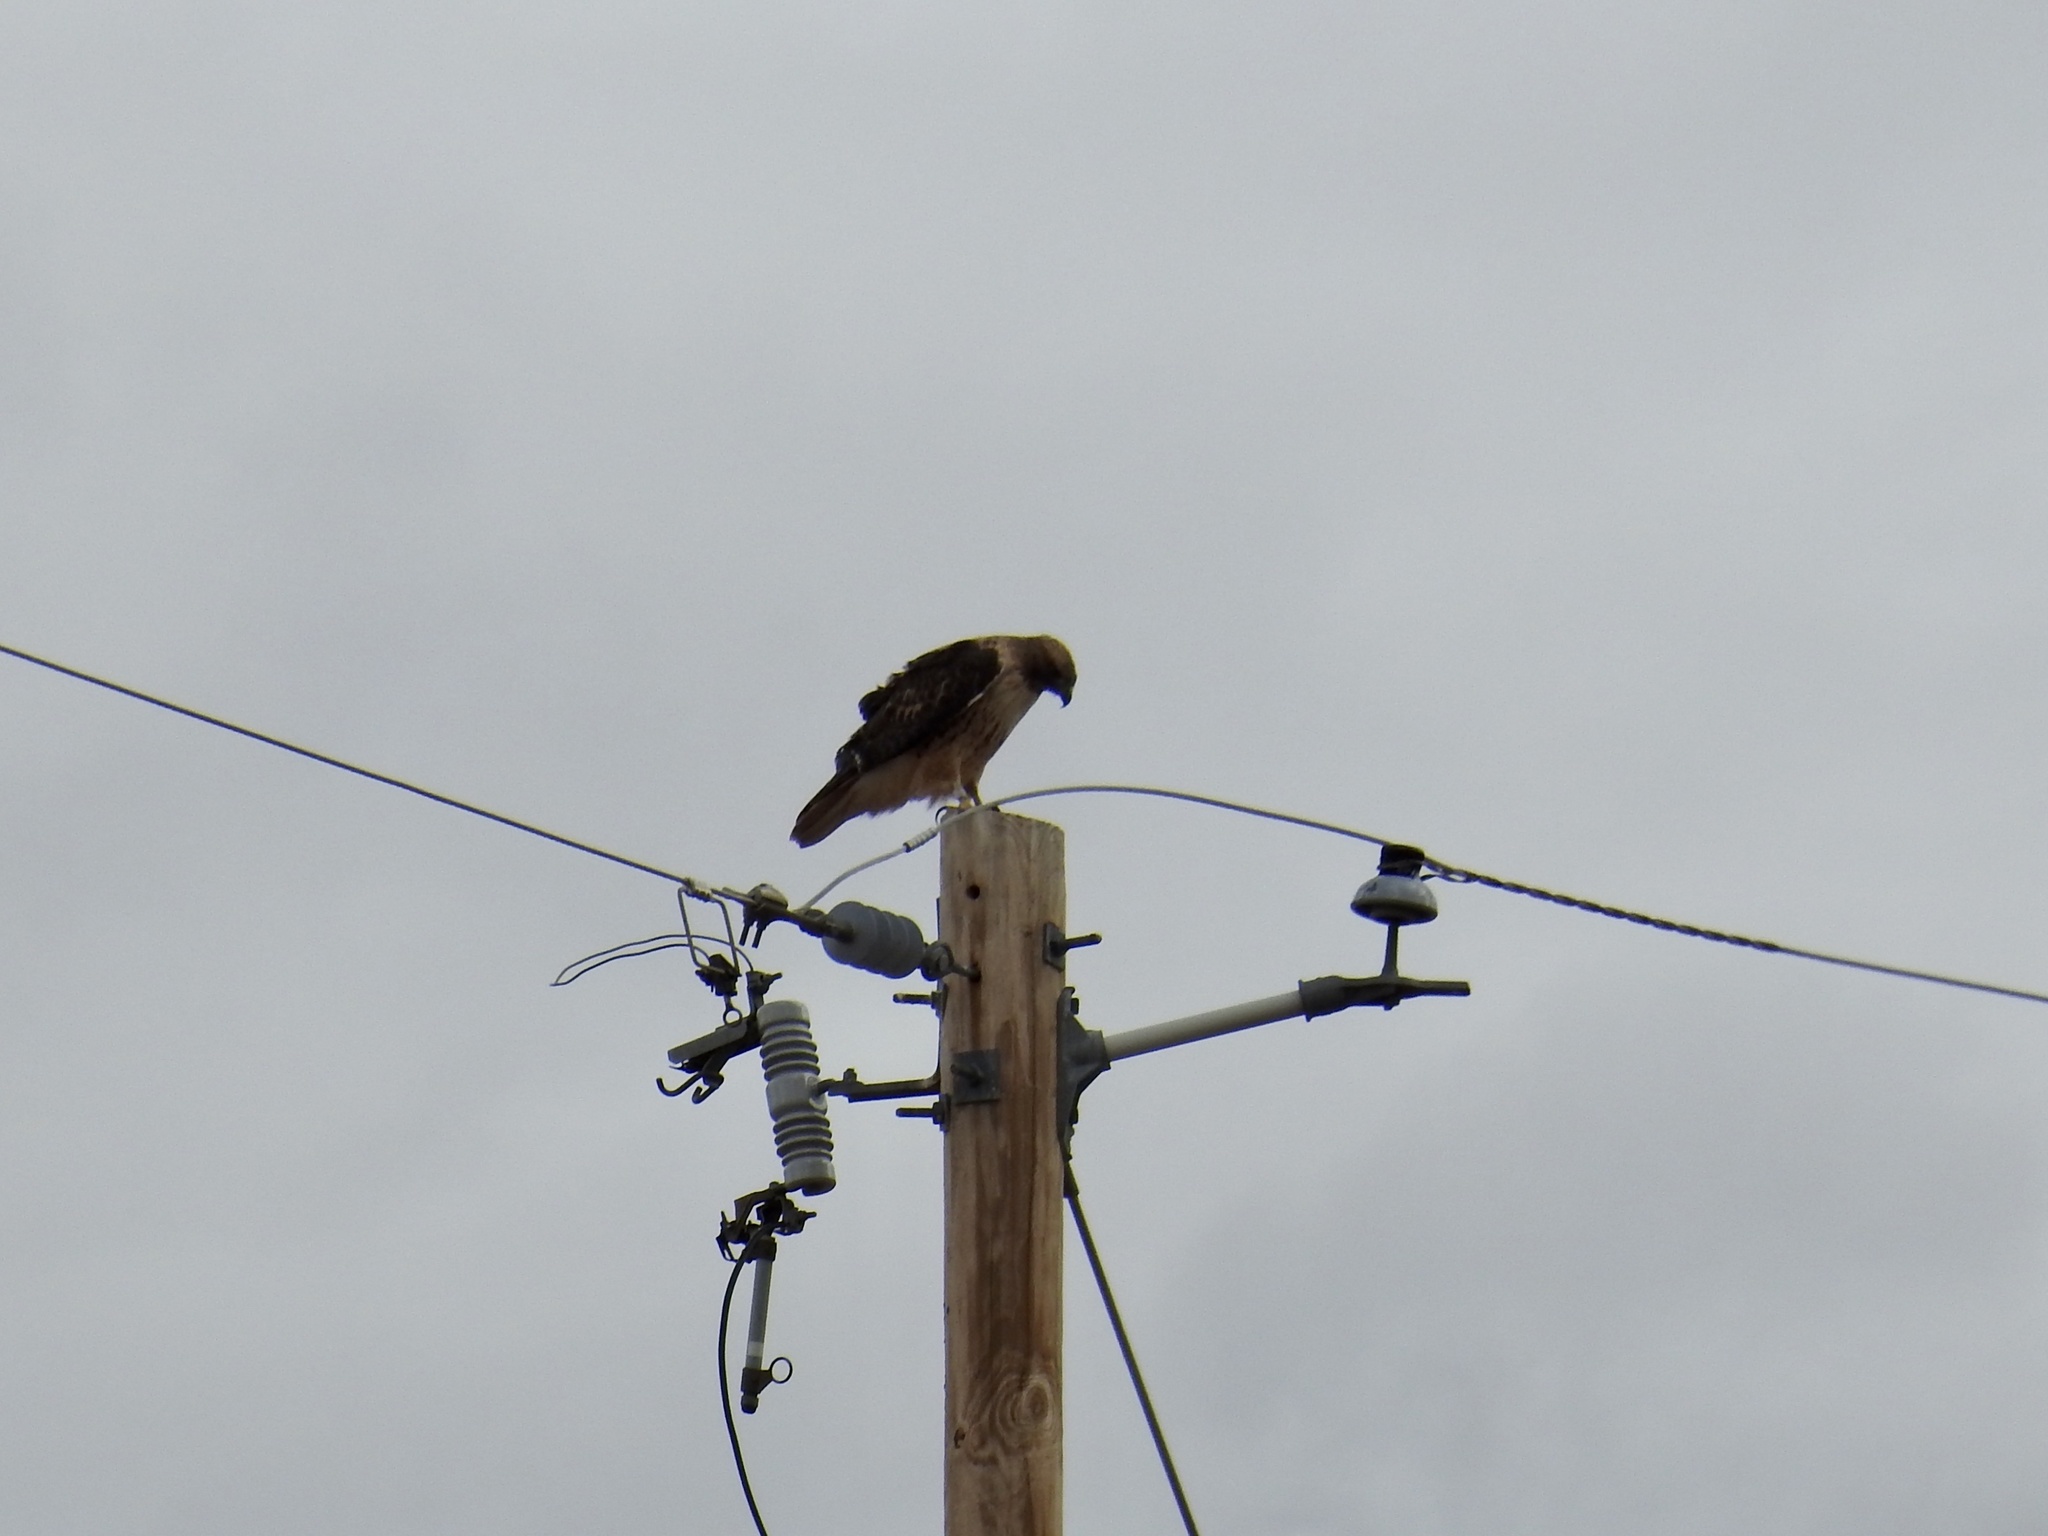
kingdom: Animalia
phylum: Chordata
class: Aves
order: Accipitriformes
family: Accipitridae
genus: Buteo
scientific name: Buteo jamaicensis
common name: Red-tailed hawk
